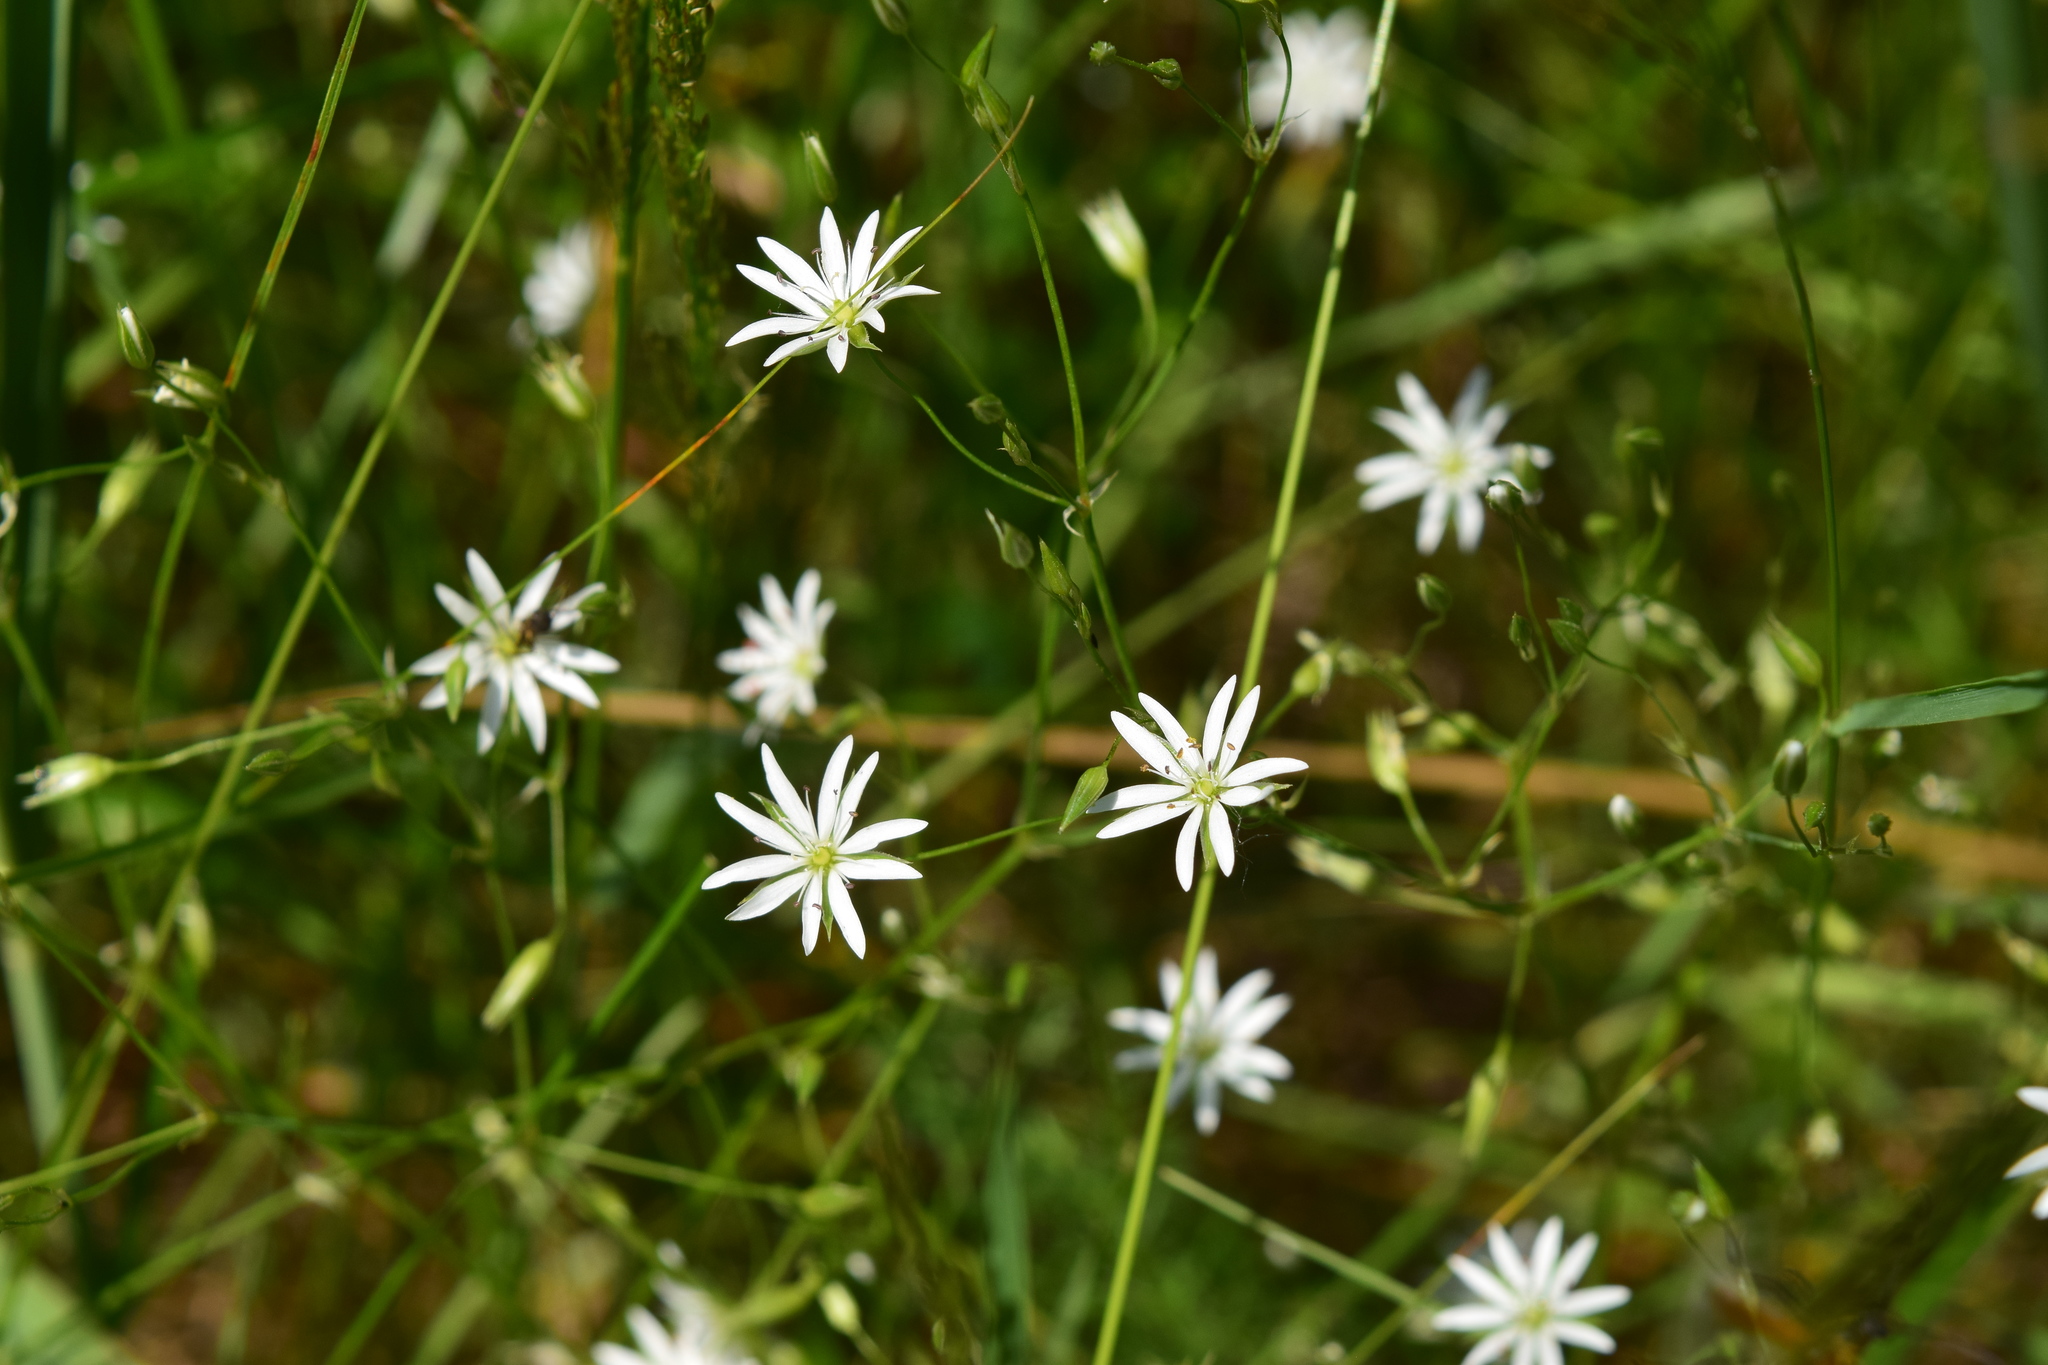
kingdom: Plantae
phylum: Tracheophyta
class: Magnoliopsida
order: Caryophyllales
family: Caryophyllaceae
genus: Stellaria
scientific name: Stellaria graminea
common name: Grass-like starwort
